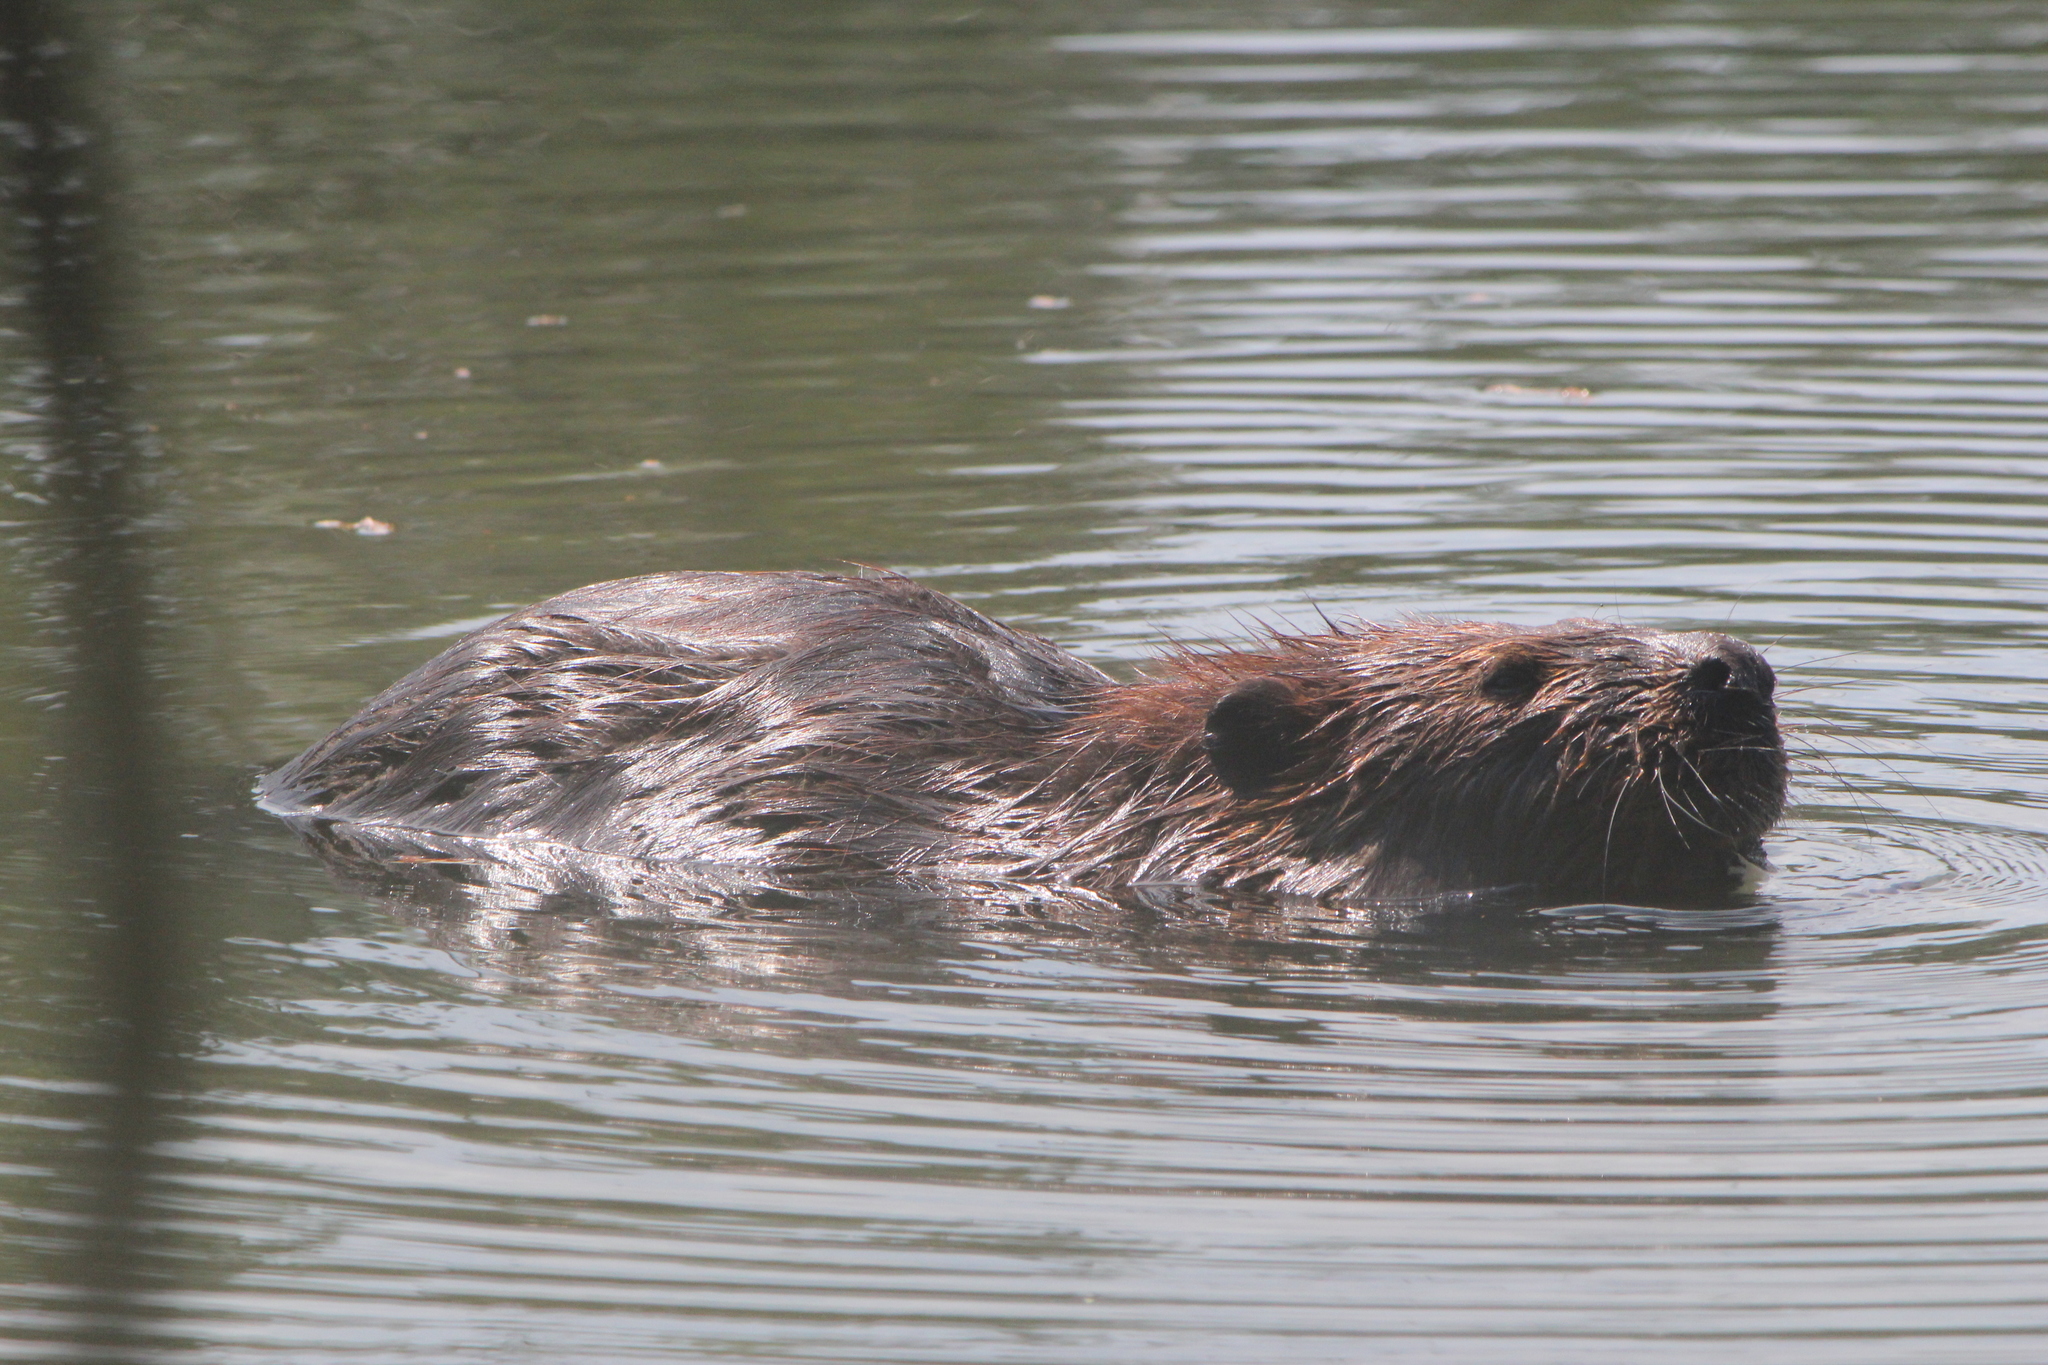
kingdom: Animalia
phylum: Chordata
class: Mammalia
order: Rodentia
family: Castoridae
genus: Castor
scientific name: Castor canadensis
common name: American beaver
